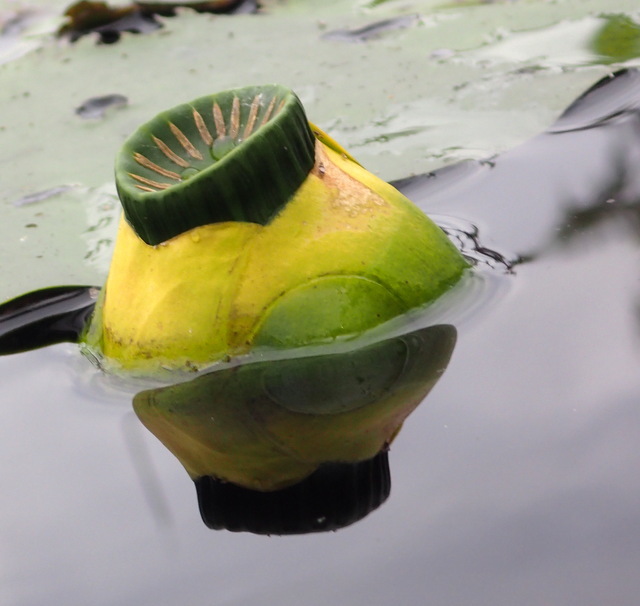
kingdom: Plantae
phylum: Tracheophyta
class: Magnoliopsida
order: Nymphaeales
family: Nymphaeaceae
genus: Nuphar
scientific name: Nuphar advena
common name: Spatter-dock
